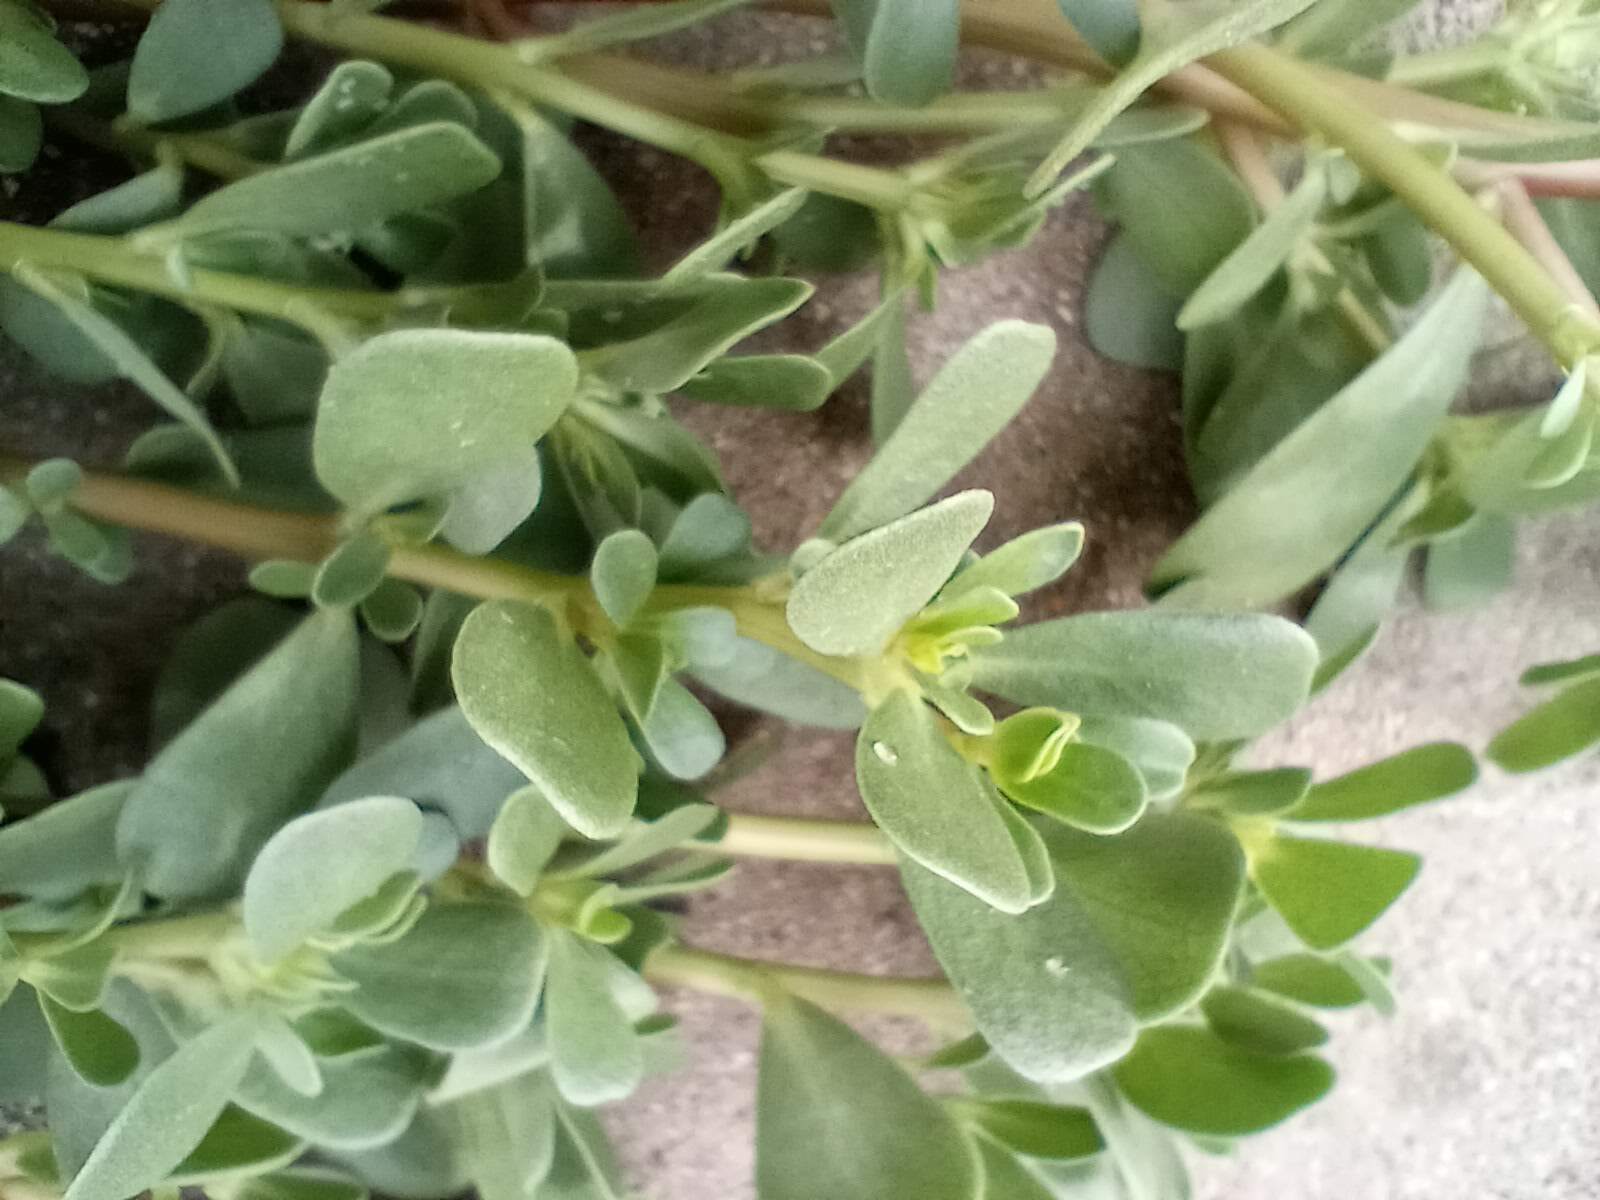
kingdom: Plantae
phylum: Tracheophyta
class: Magnoliopsida
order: Caryophyllales
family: Portulacaceae
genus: Portulaca
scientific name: Portulaca oleracea
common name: Common purslane
